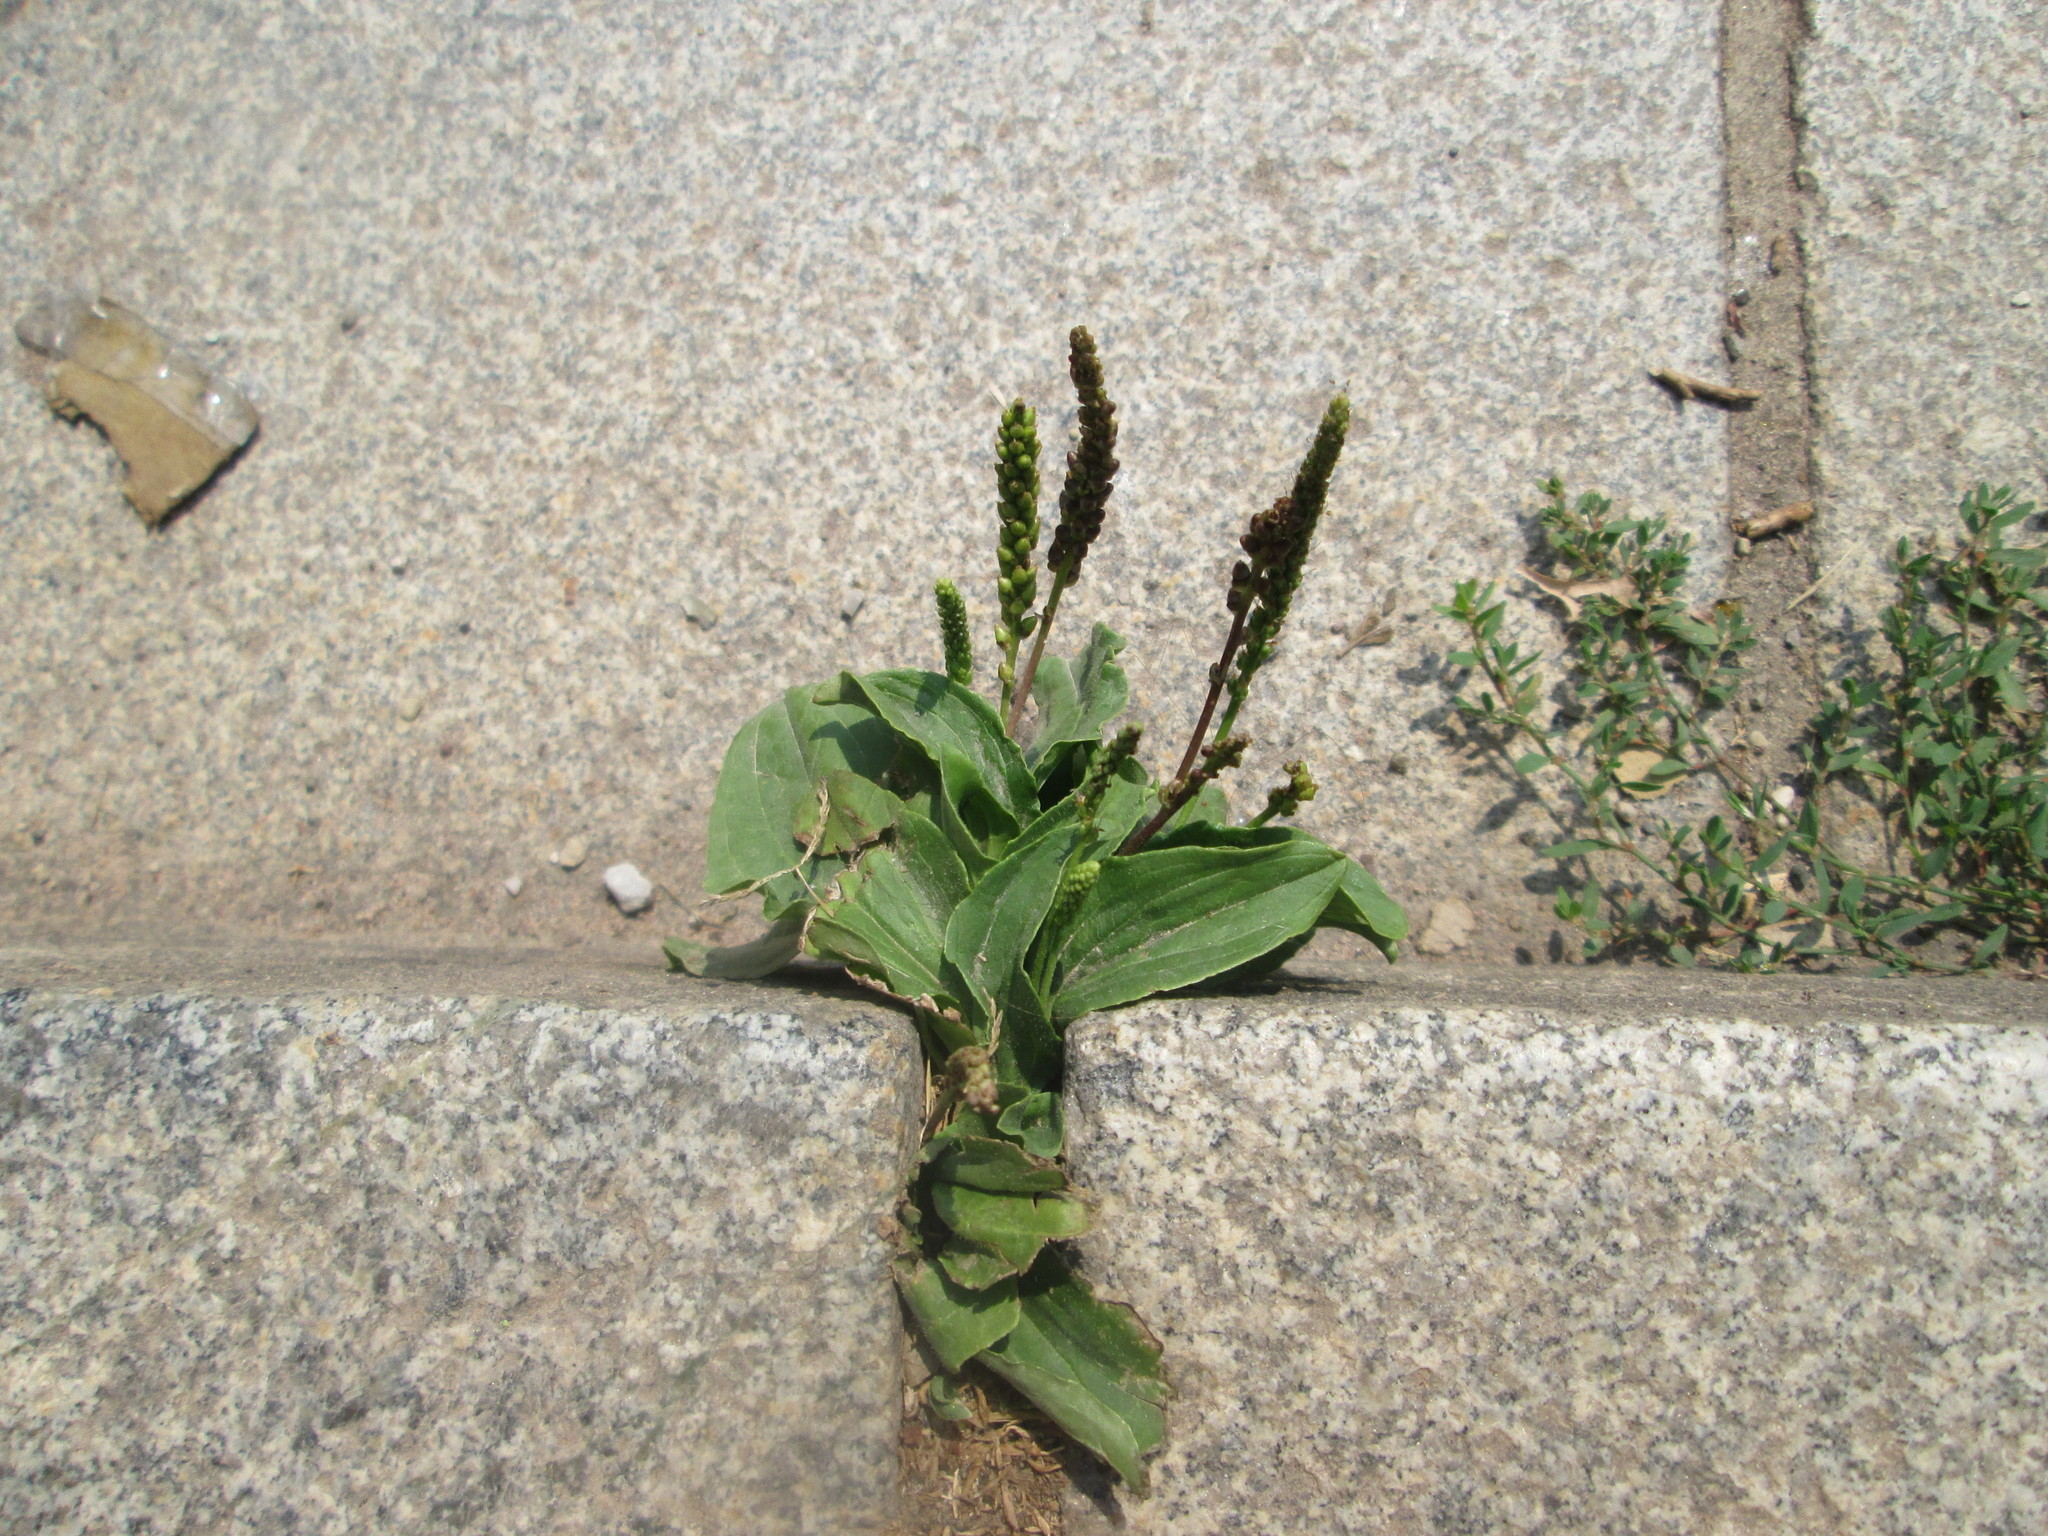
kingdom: Plantae
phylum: Tracheophyta
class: Magnoliopsida
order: Lamiales
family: Plantaginaceae
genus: Plantago
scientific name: Plantago major
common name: Common plantain
